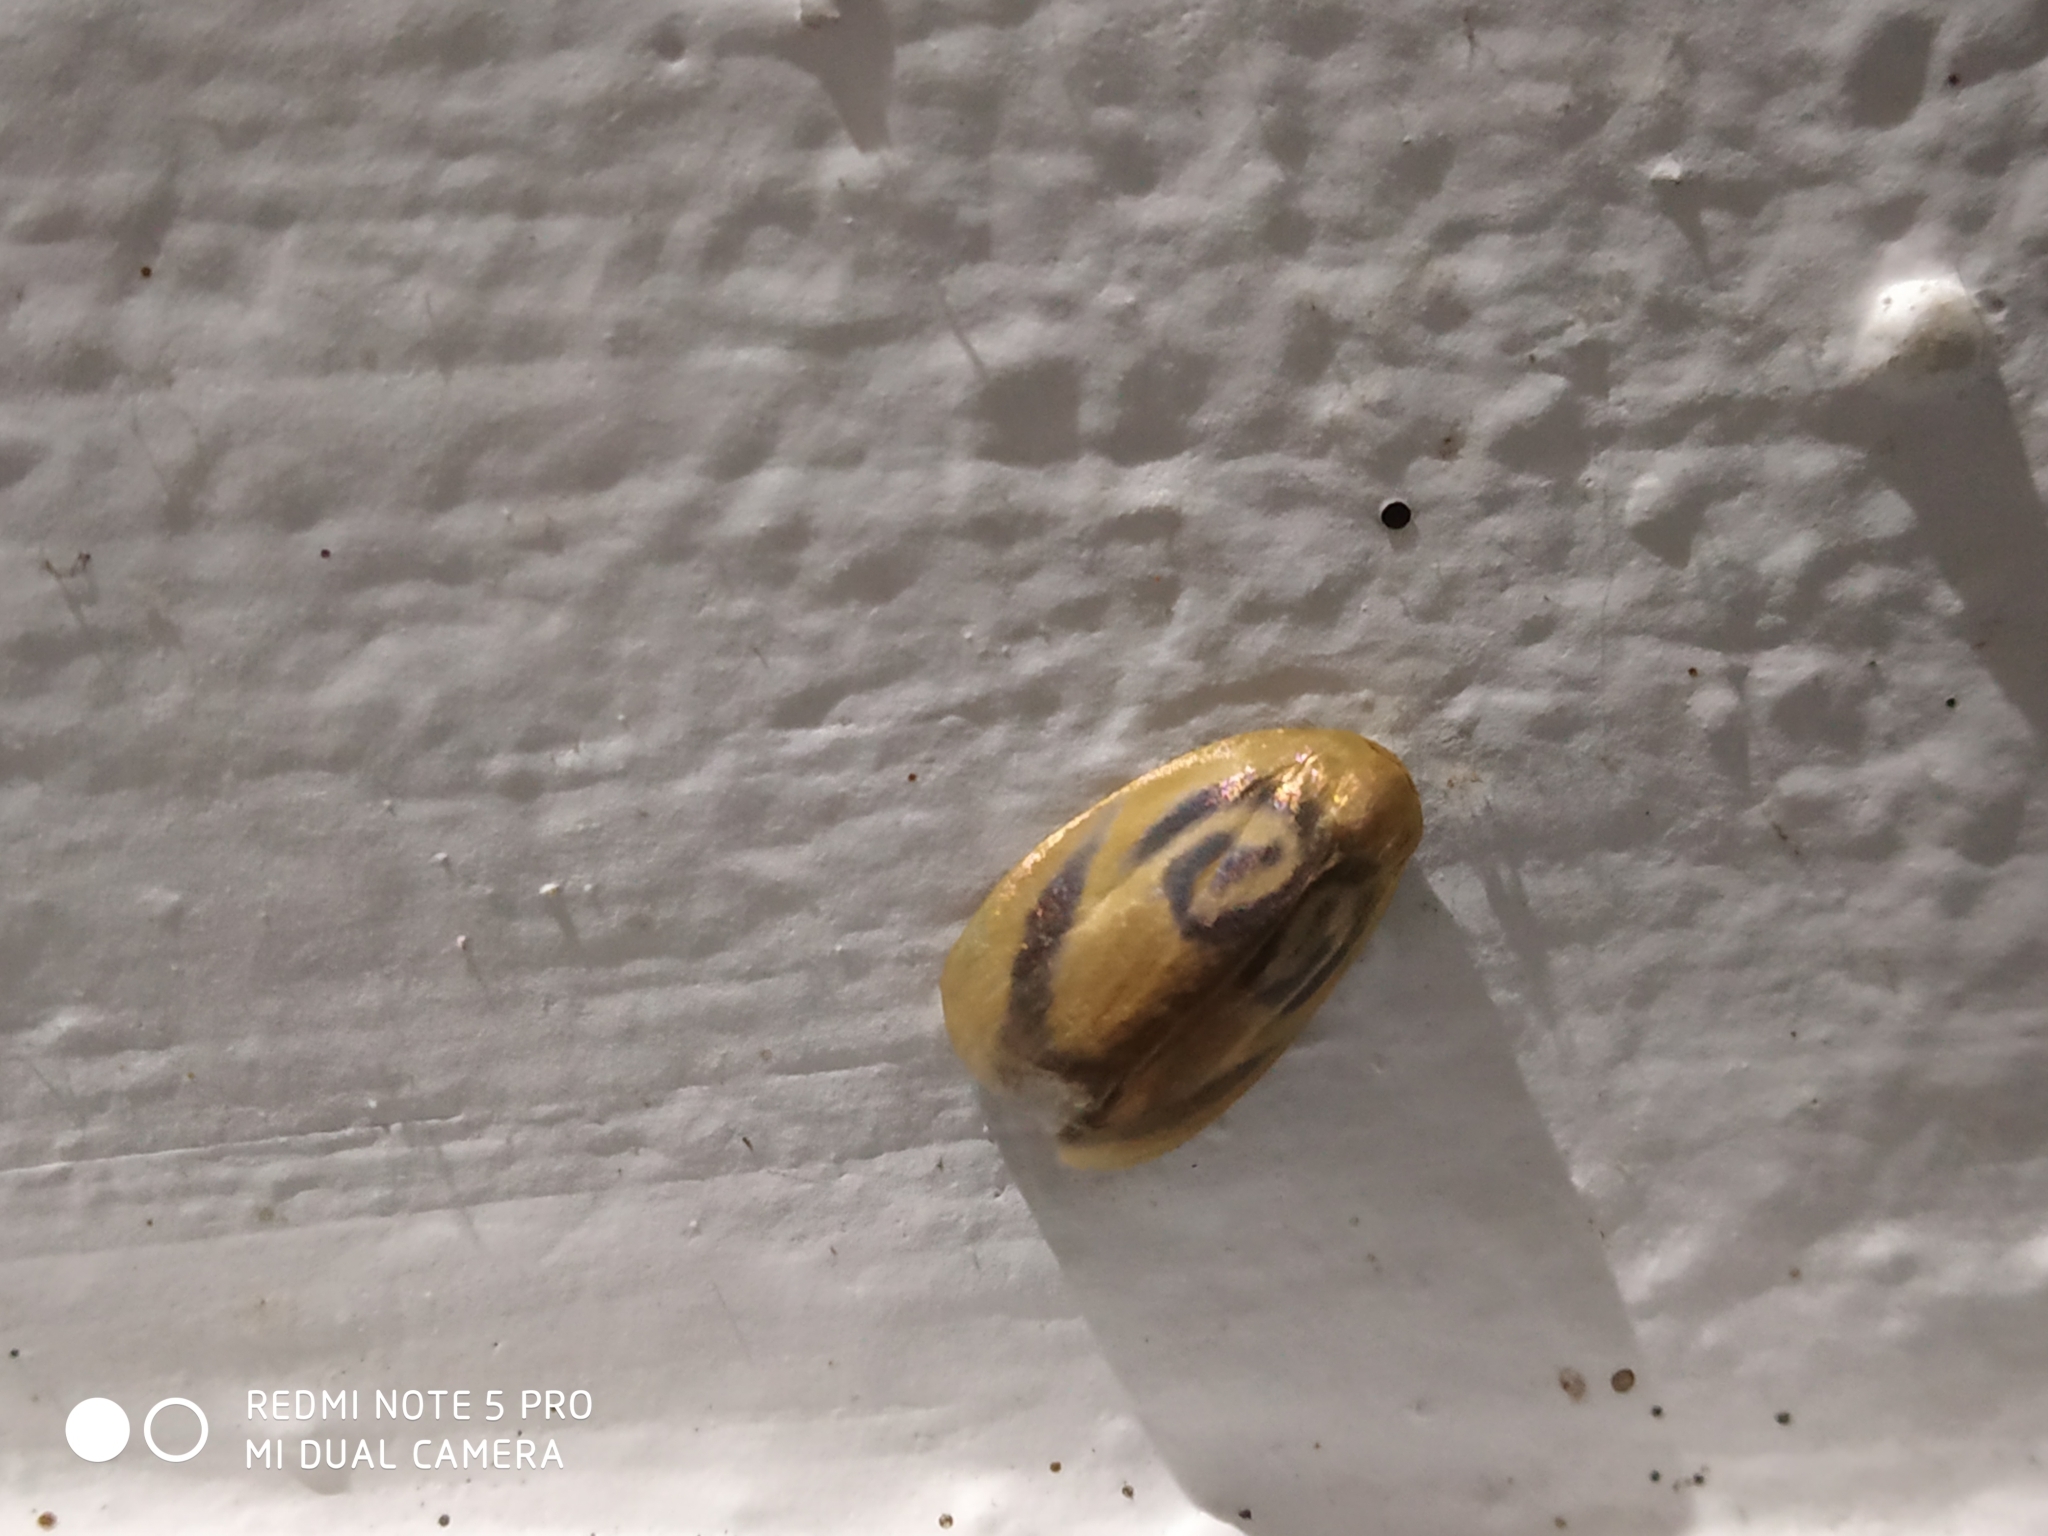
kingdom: Animalia
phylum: Arthropoda
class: Insecta
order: Lepidoptera
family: Erebidae
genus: Trischalis
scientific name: Trischalis subaurana
